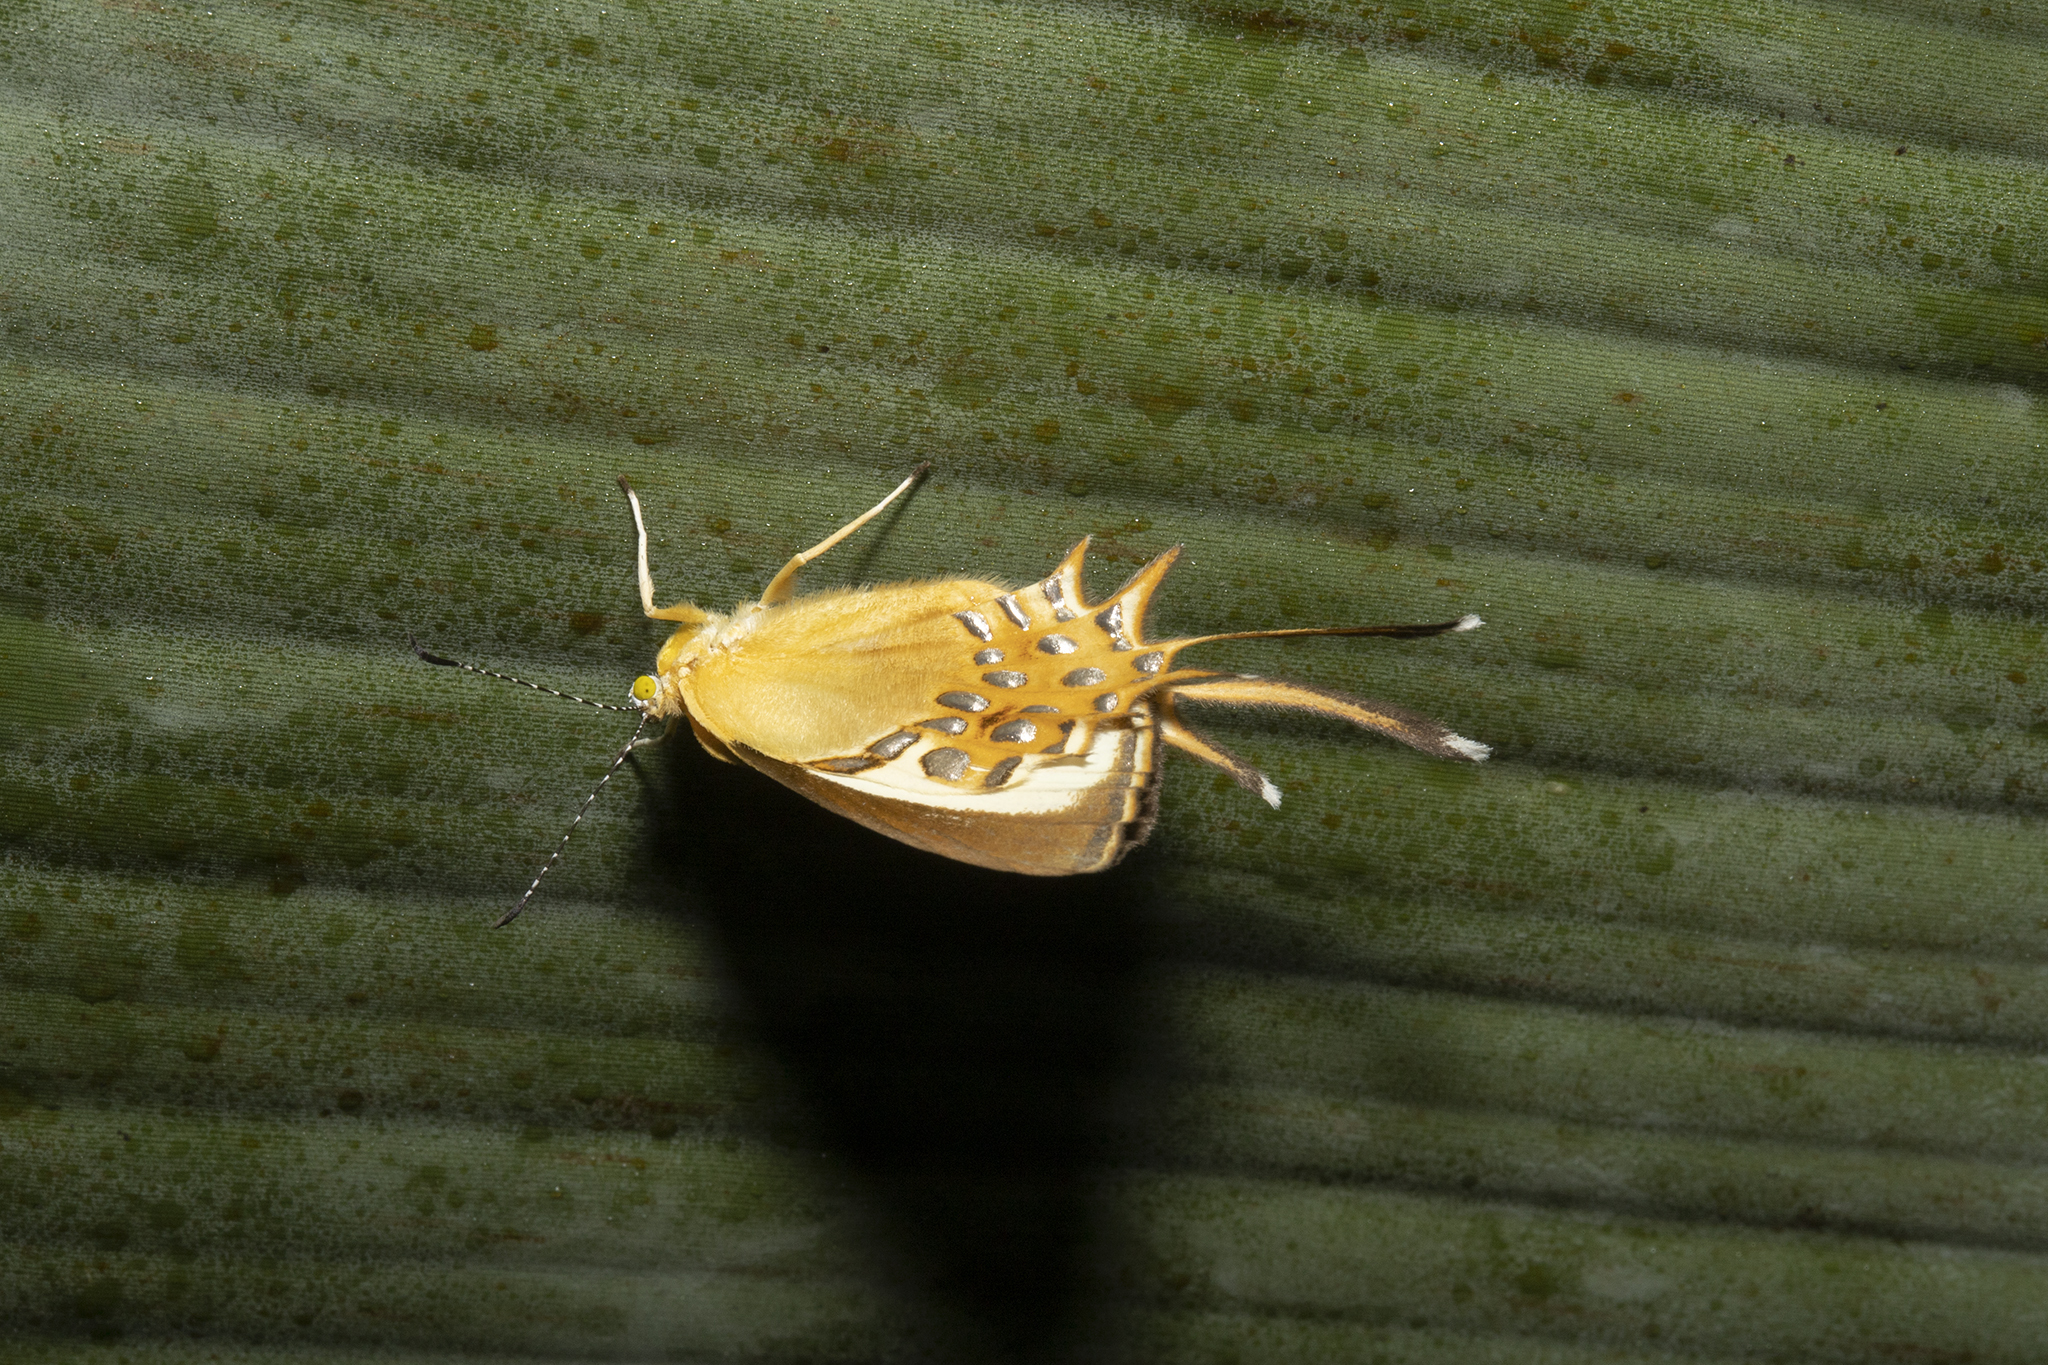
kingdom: Animalia
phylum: Arthropoda
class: Insecta
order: Lepidoptera
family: Riodinidae
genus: Helicopis
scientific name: Helicopis cupido
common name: Spangled cupid
